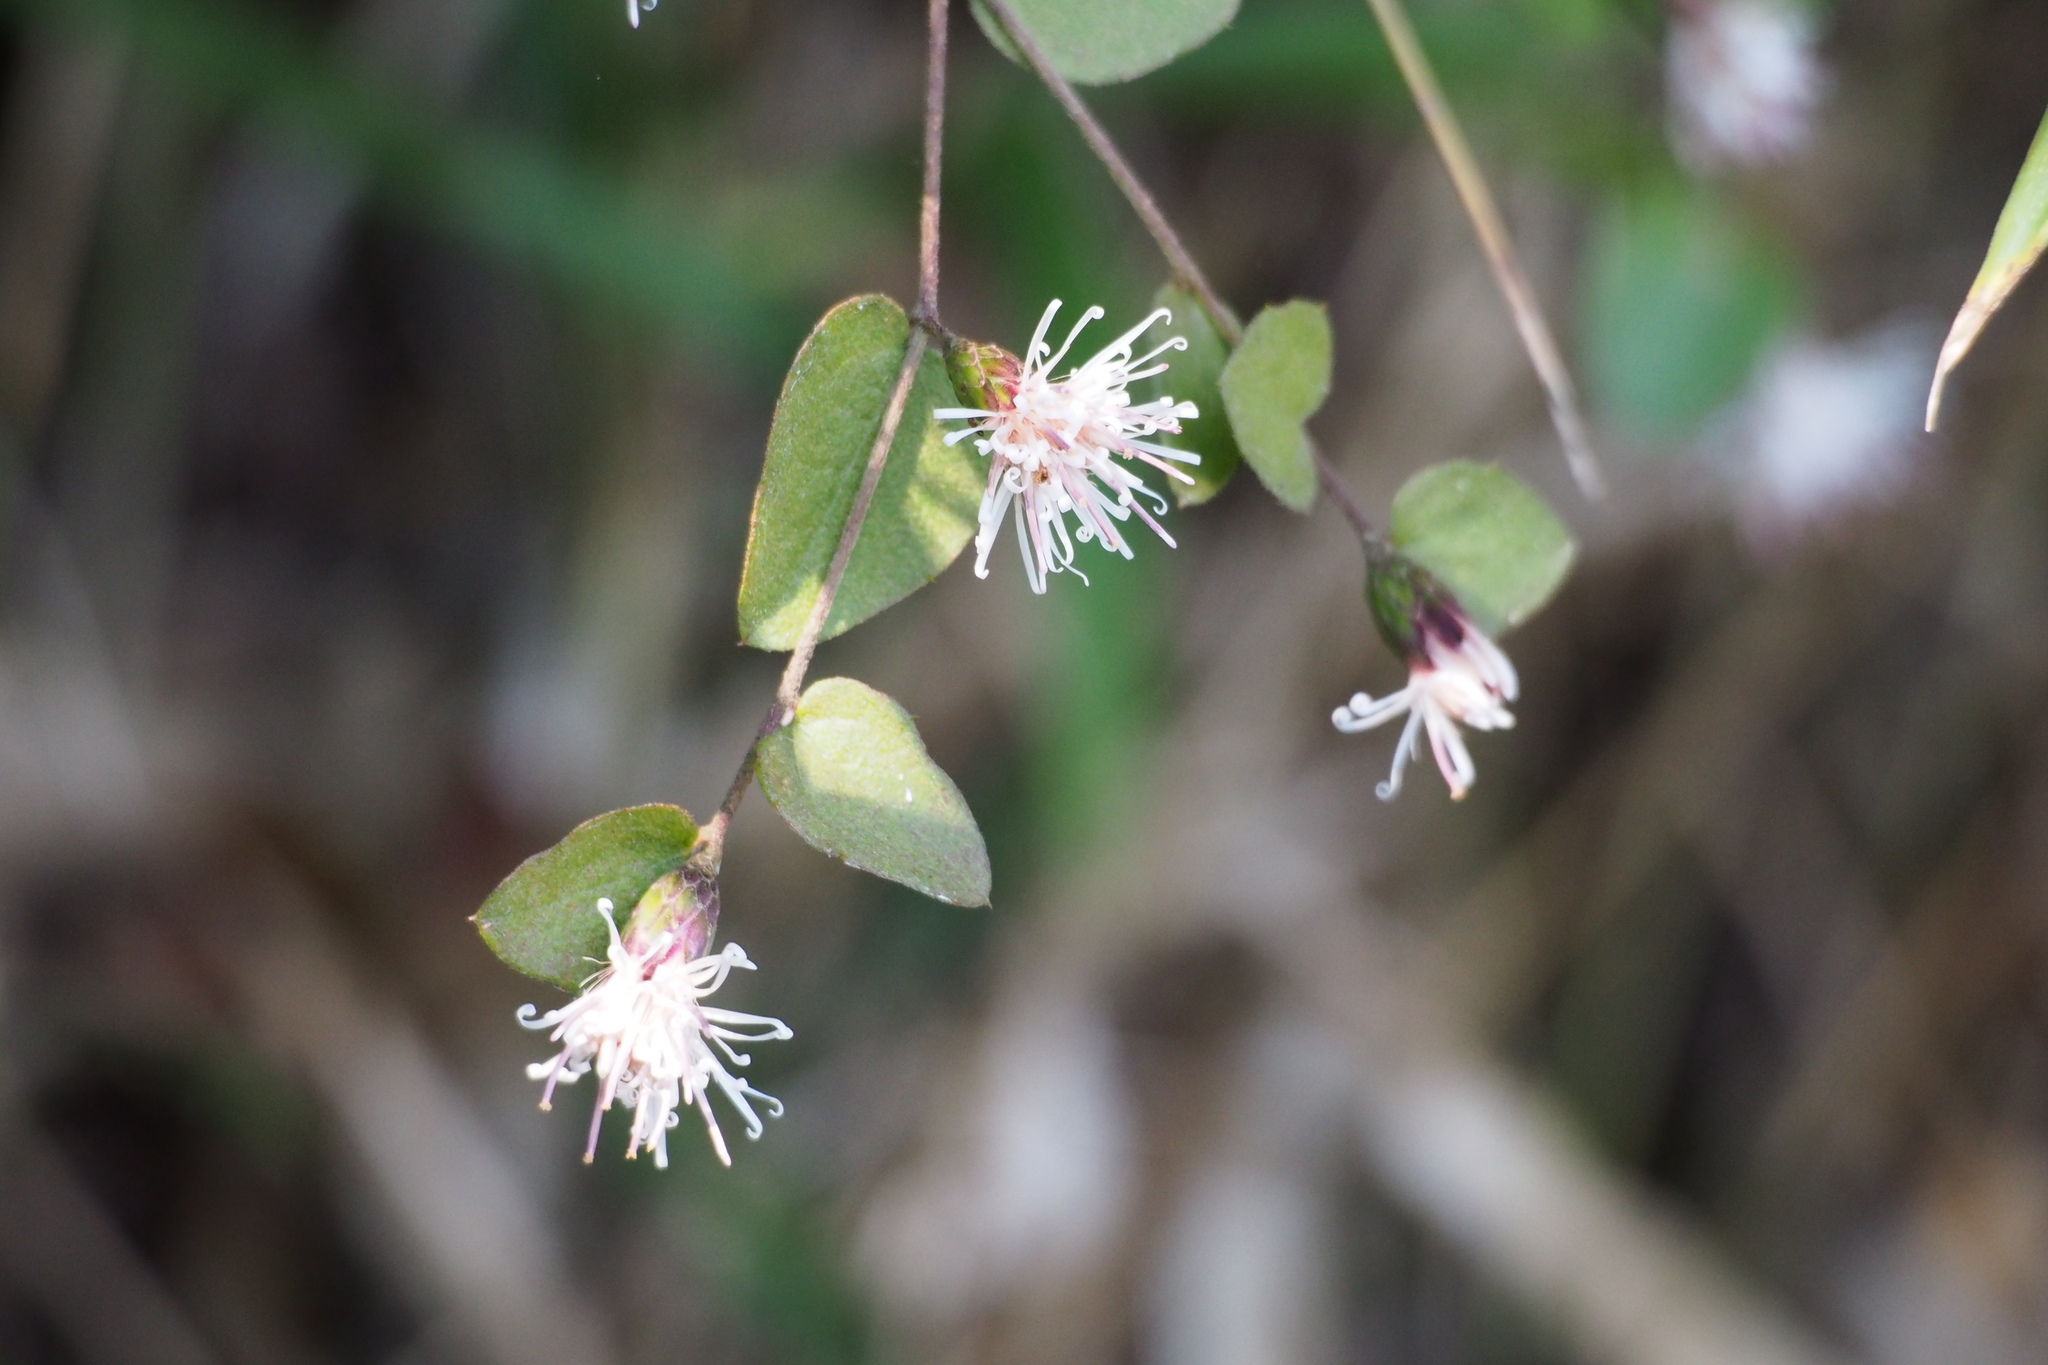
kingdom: Plantae
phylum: Tracheophyta
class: Magnoliopsida
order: Asterales
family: Asteraceae
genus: Pertya
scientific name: Pertya scandens
